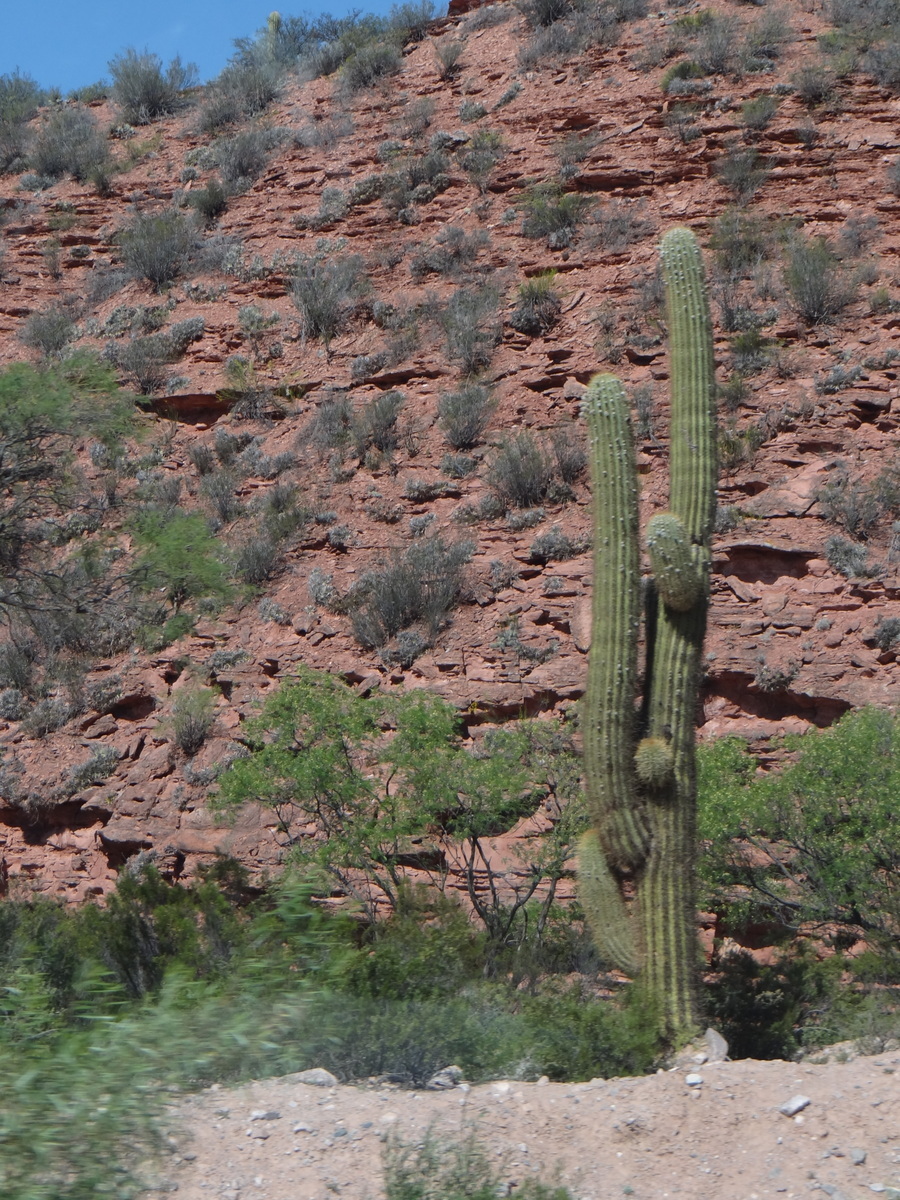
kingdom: Plantae
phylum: Tracheophyta
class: Magnoliopsida
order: Caryophyllales
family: Cactaceae
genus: Leucostele
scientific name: Leucostele terscheckii
